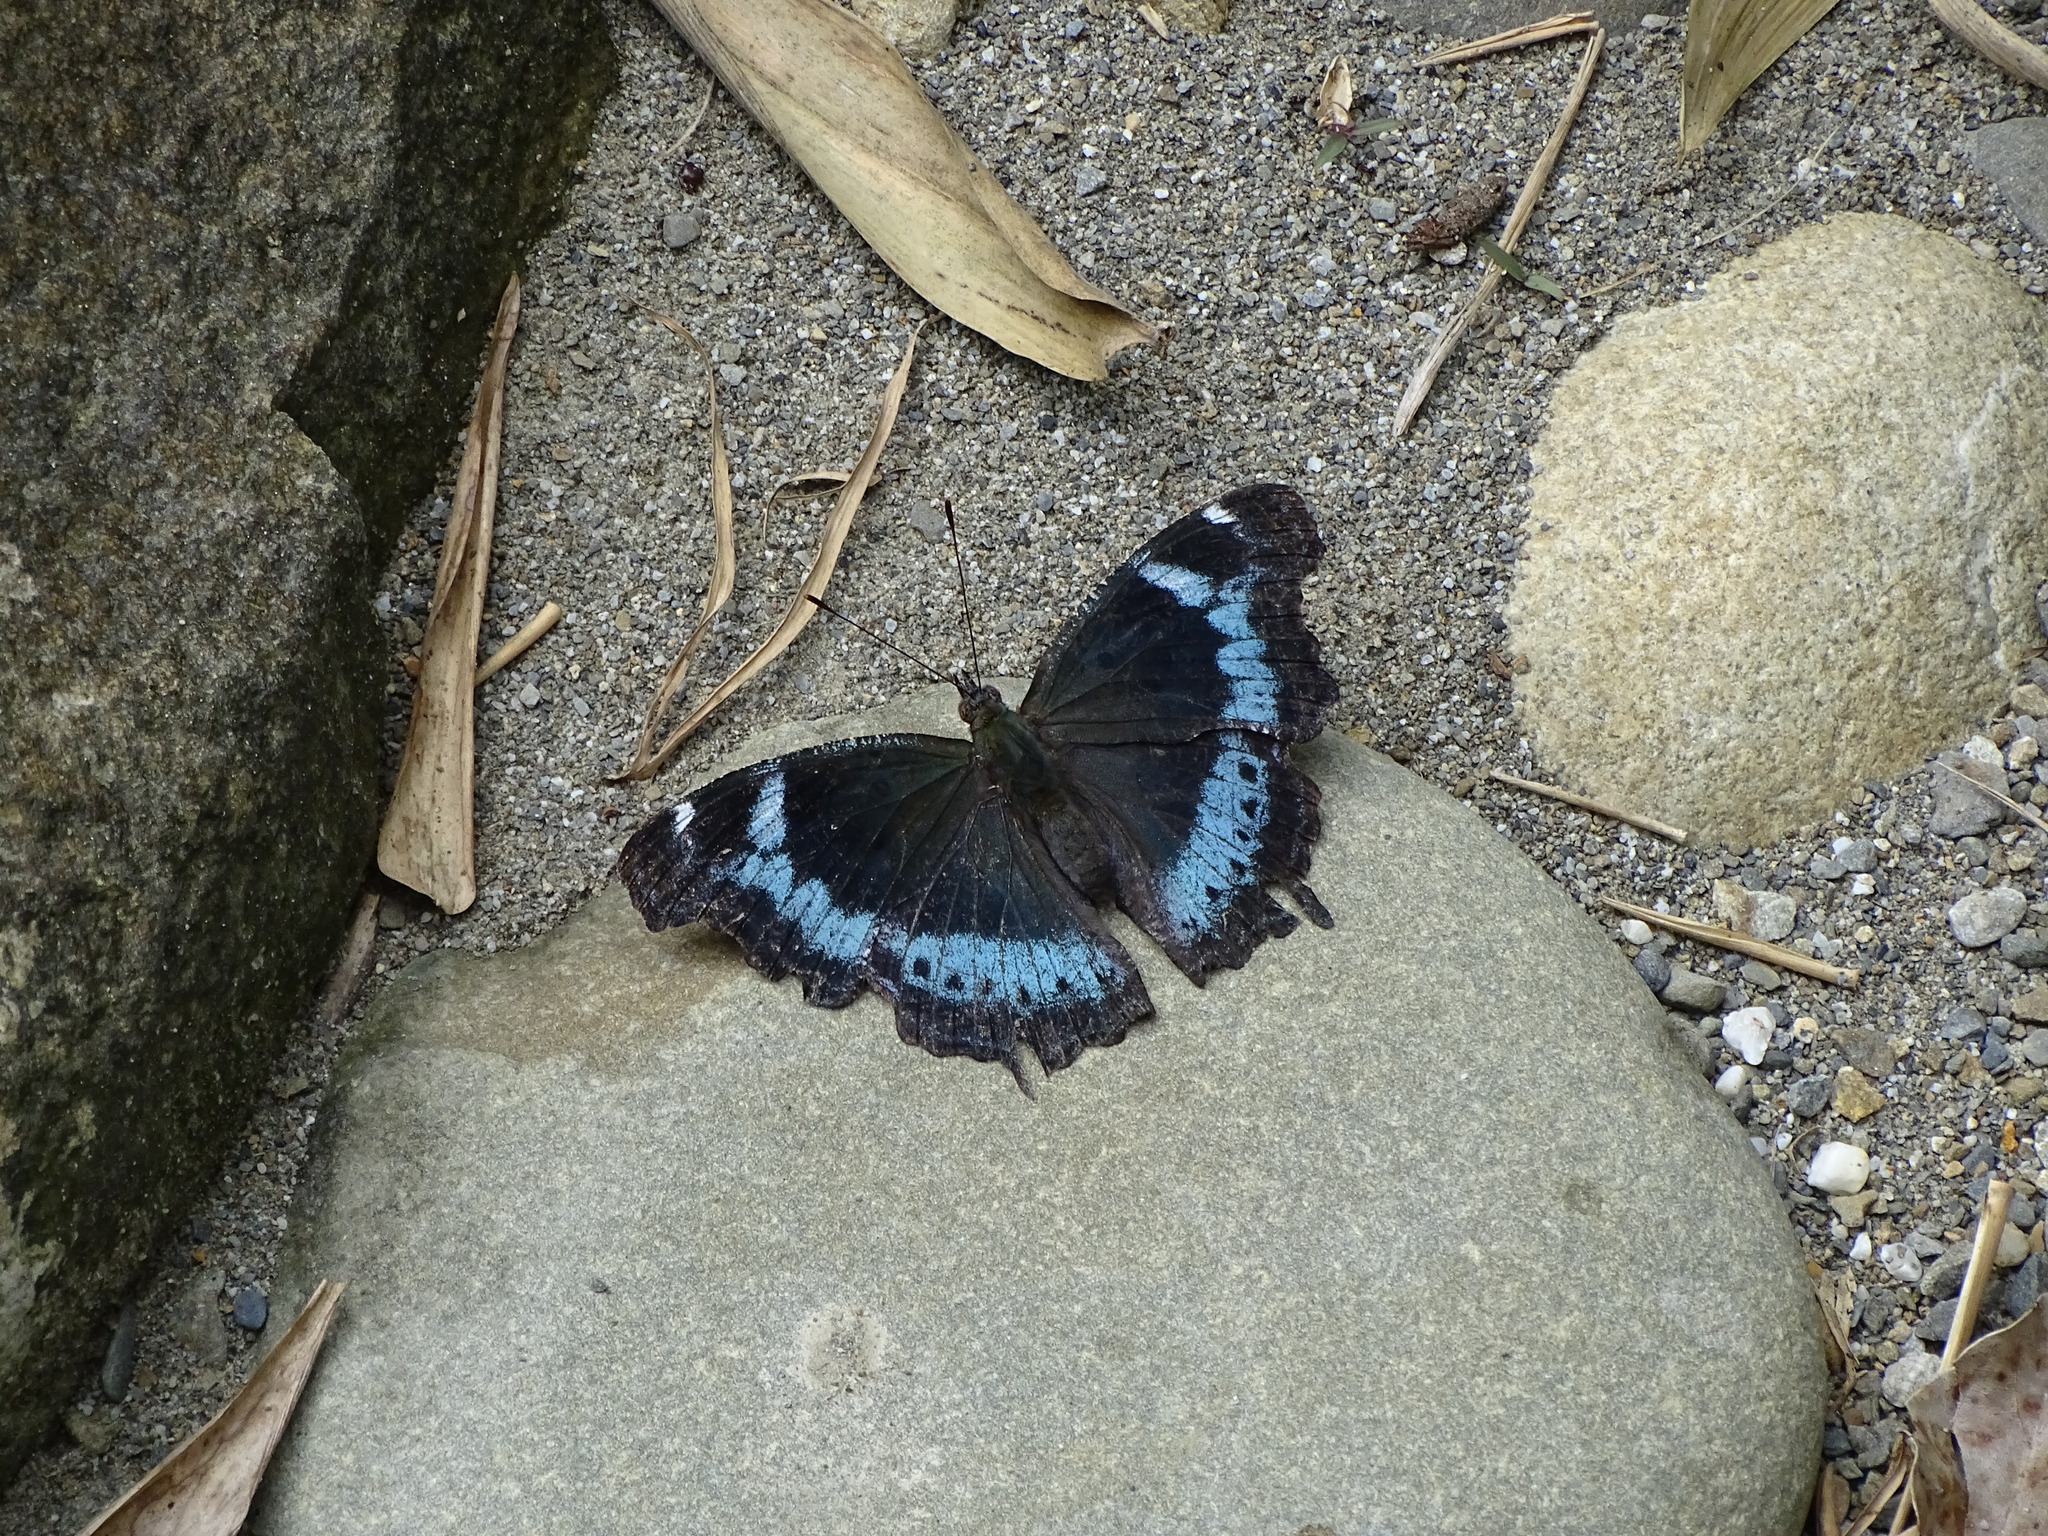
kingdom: Animalia
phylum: Arthropoda
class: Insecta
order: Lepidoptera
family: Nymphalidae
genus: Vanessa
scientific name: Vanessa Kaniska canace
